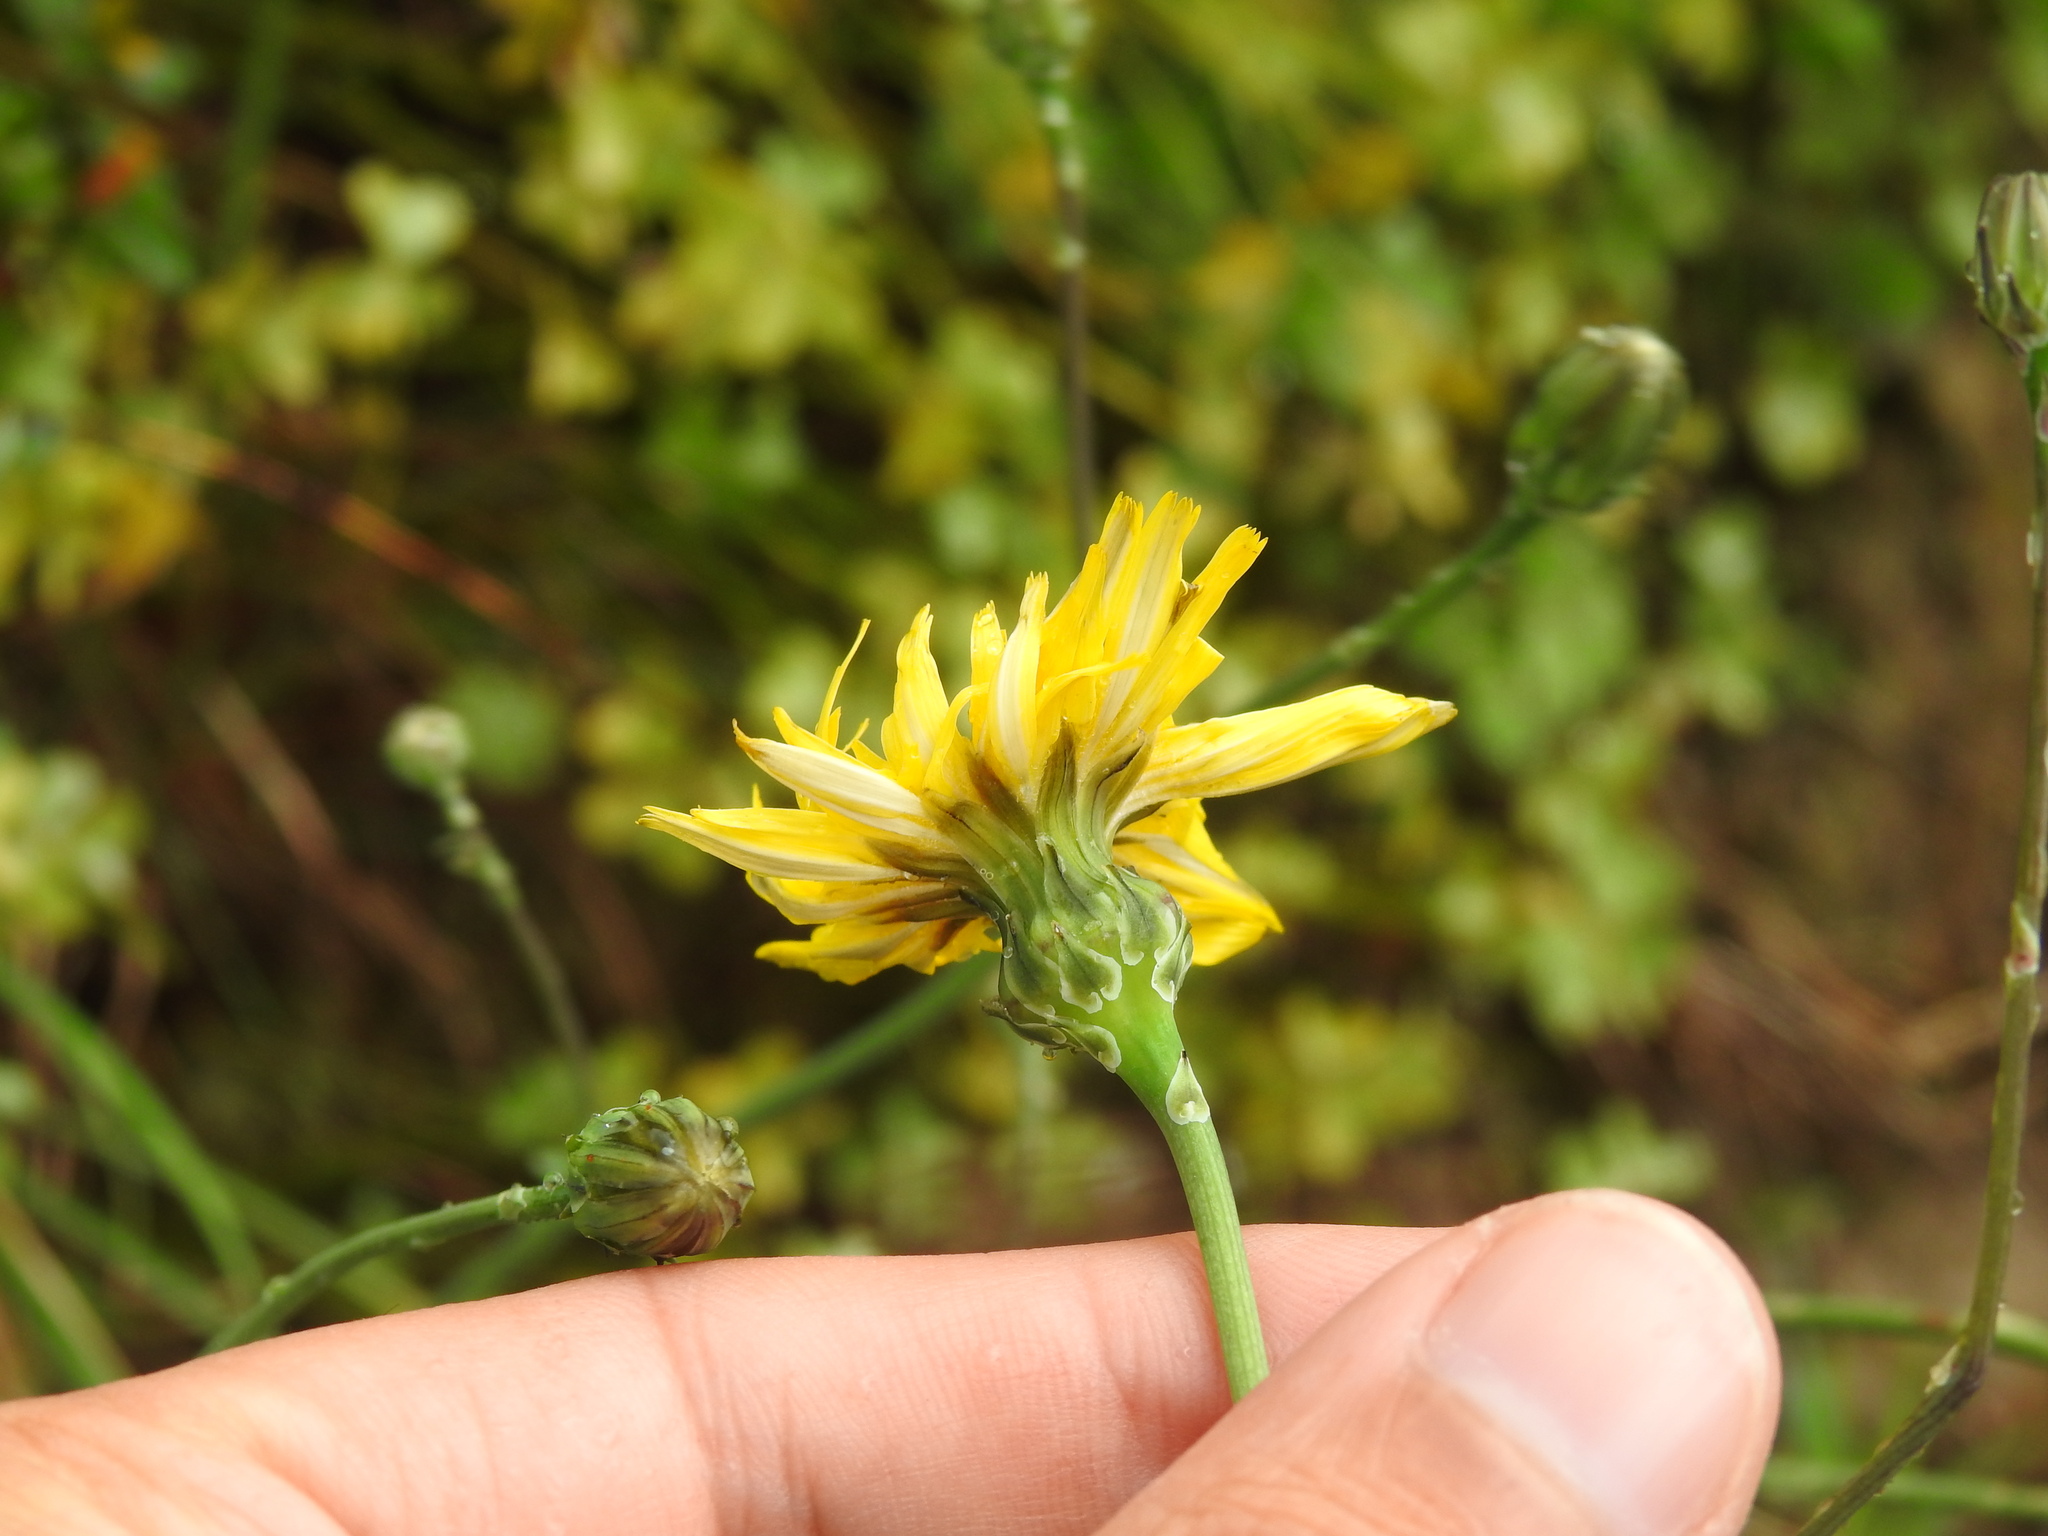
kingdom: Plantae
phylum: Tracheophyta
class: Magnoliopsida
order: Asterales
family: Asteraceae
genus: Reichardia
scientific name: Reichardia picroides
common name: Common brighteyes
